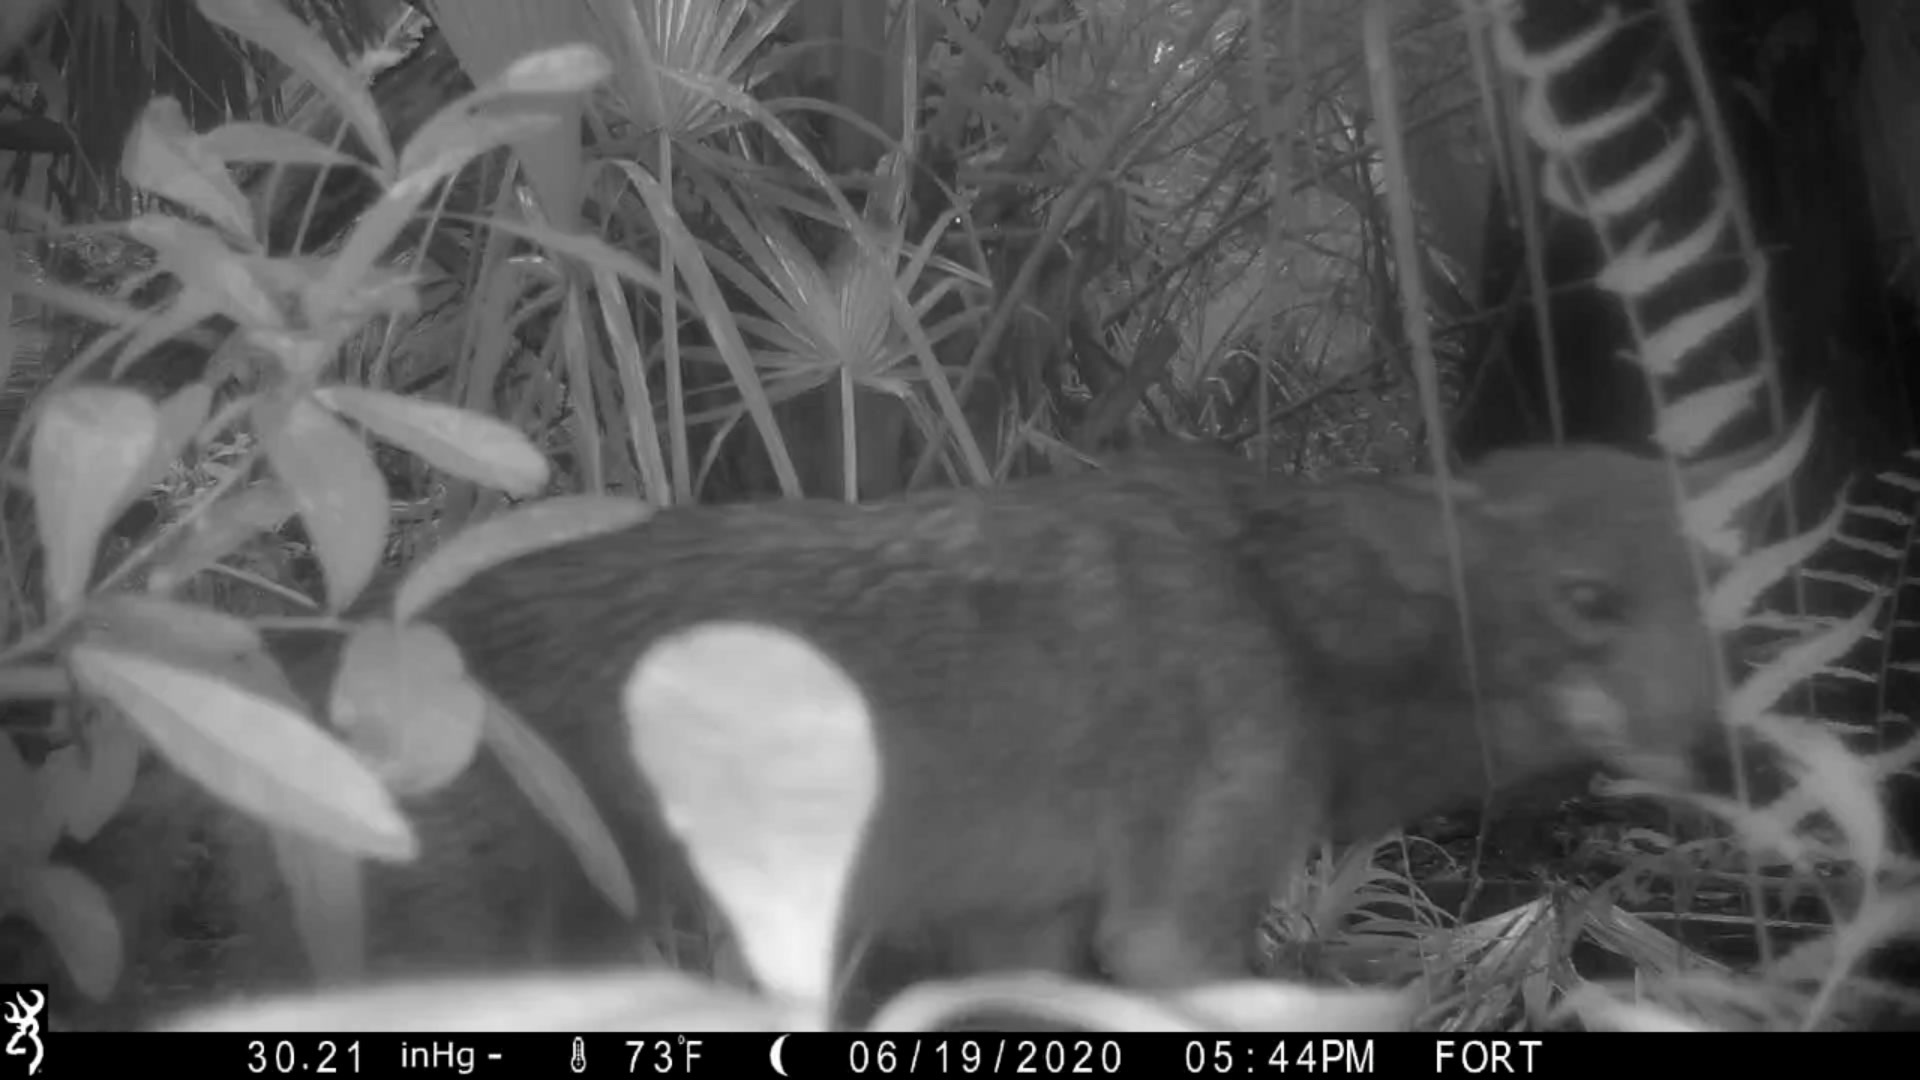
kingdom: Animalia
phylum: Chordata
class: Mammalia
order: Carnivora
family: Canidae
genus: Canis
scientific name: Canis latrans
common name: Coyote
